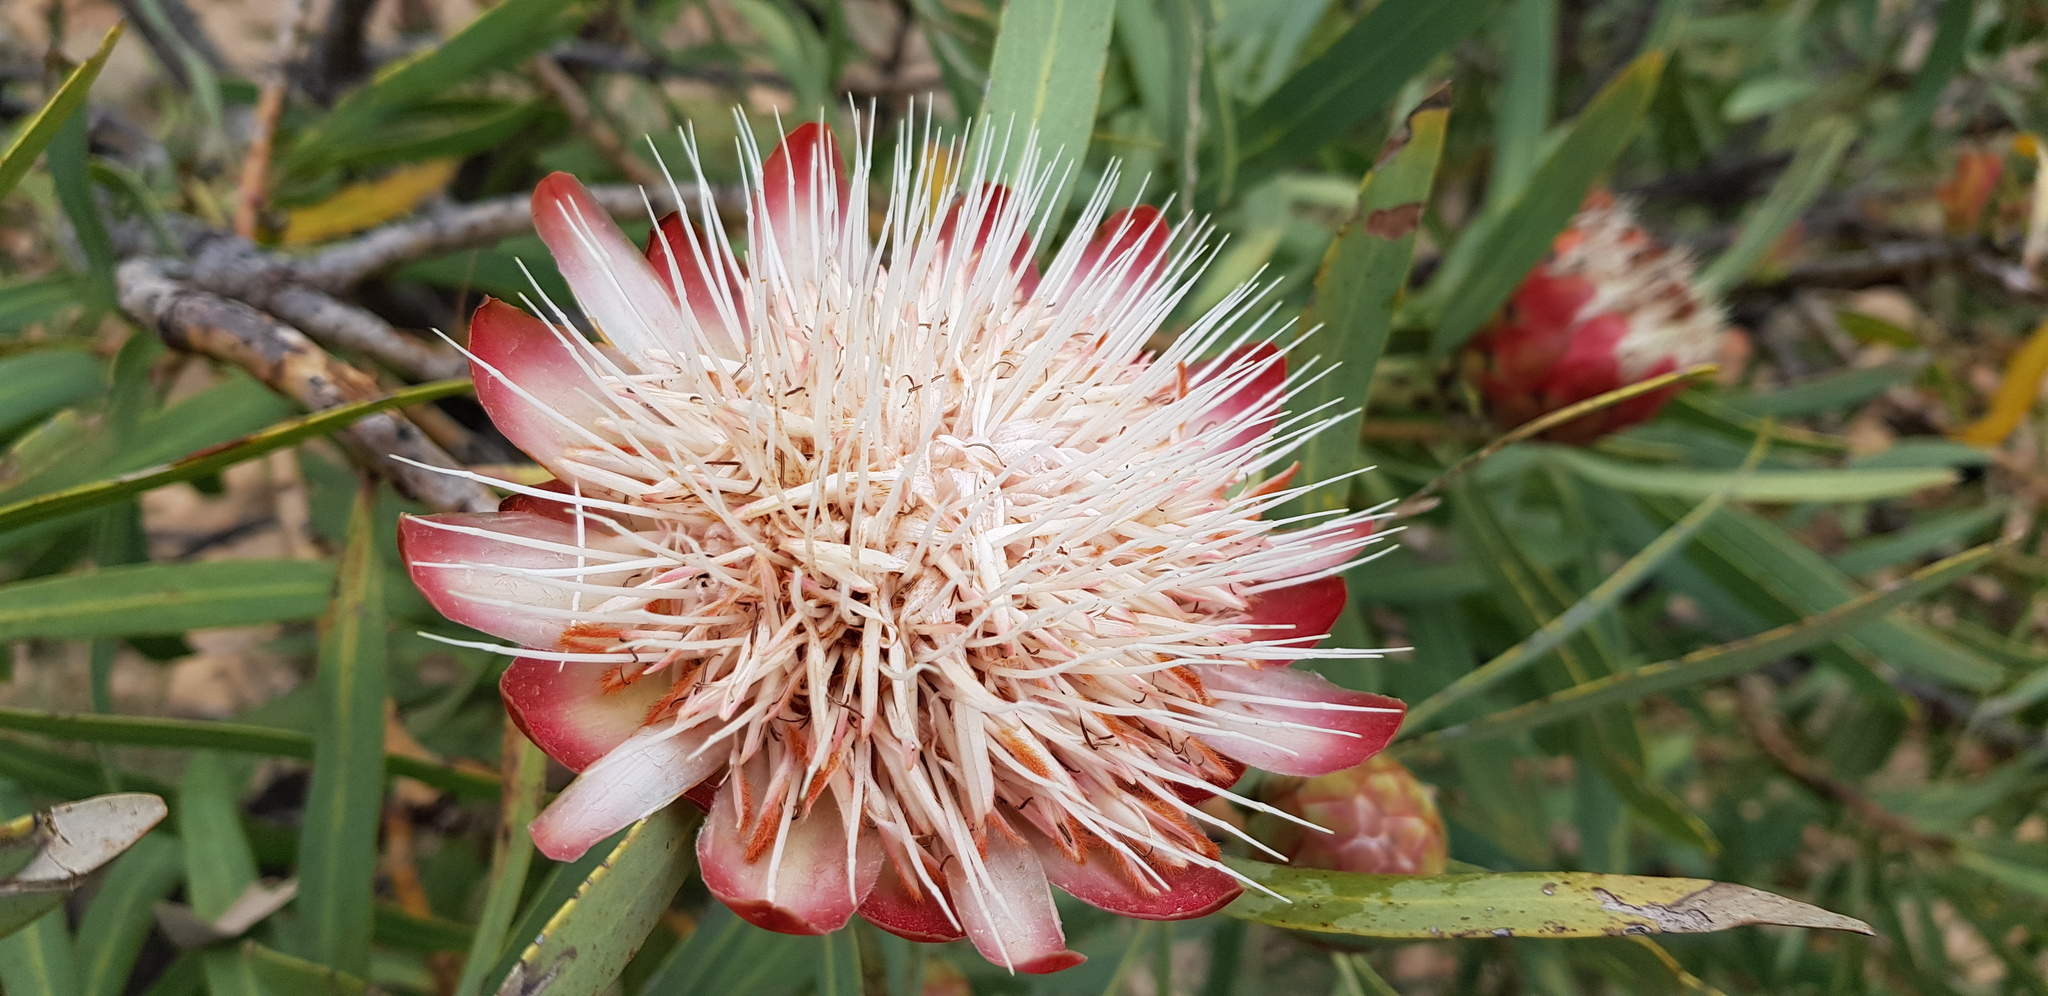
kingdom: Plantae
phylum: Tracheophyta
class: Magnoliopsida
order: Proteales
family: Proteaceae
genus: Protea
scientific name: Protea caffra
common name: Common sugarbush
